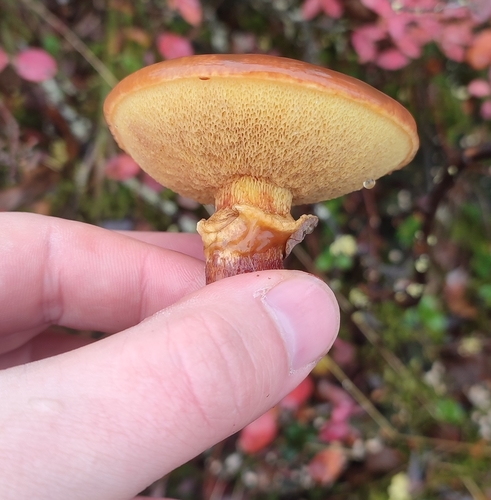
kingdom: Fungi
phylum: Basidiomycota
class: Agaricomycetes
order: Boletales
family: Suillaceae
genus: Suillus
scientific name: Suillus grevillei
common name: Larch bolete
